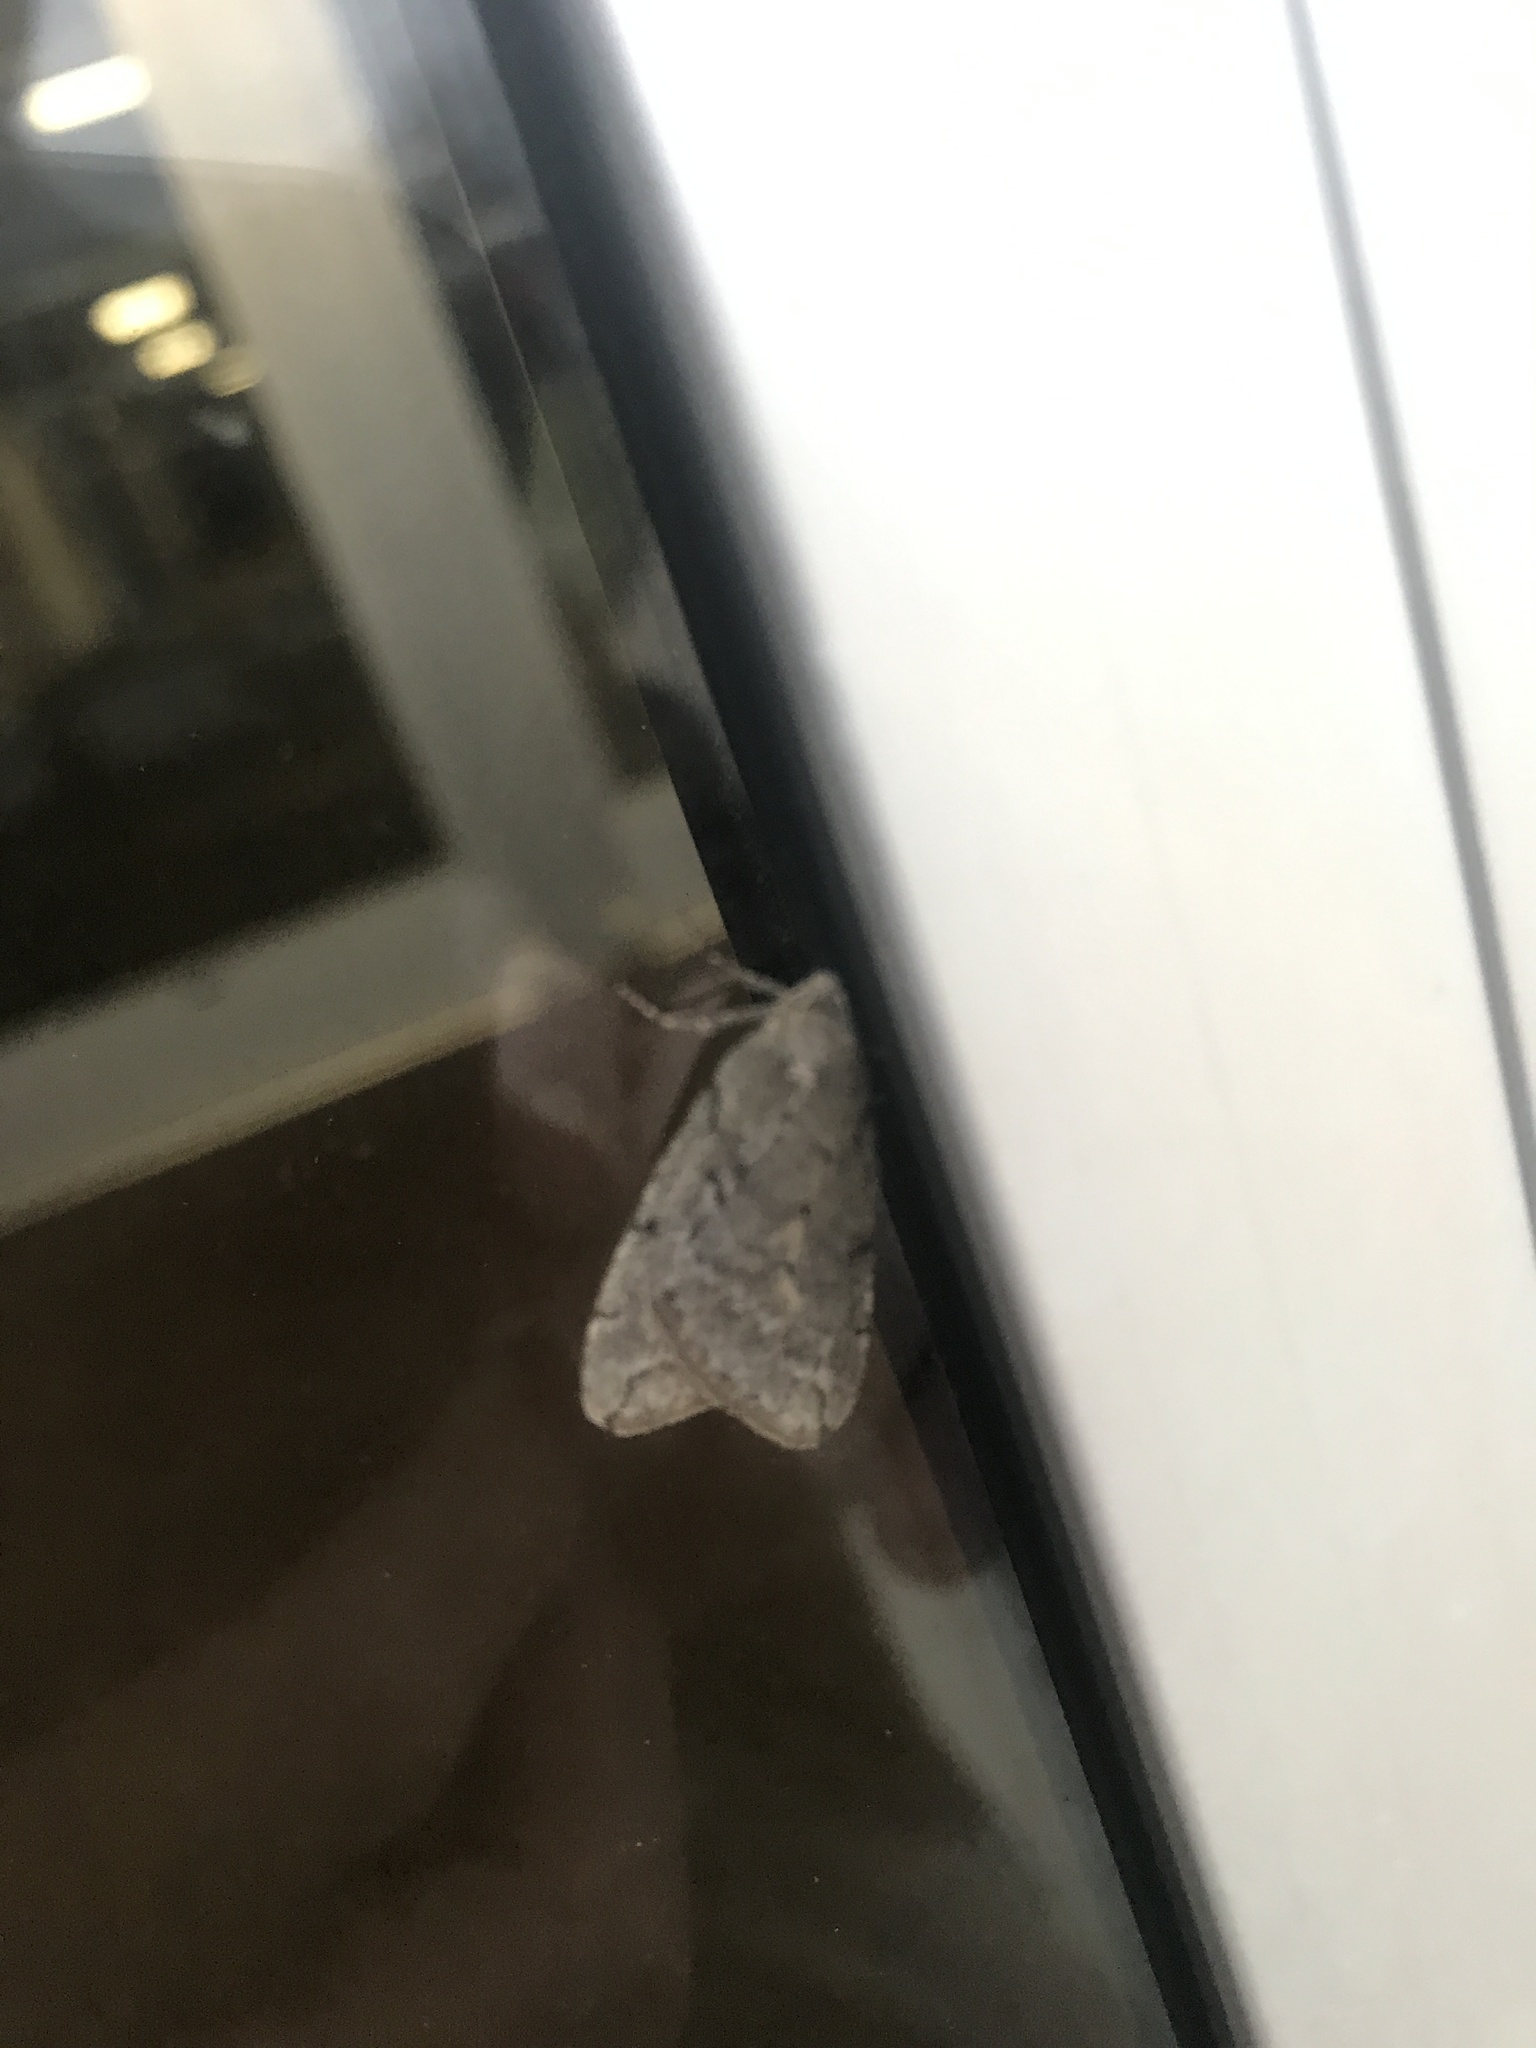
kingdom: Animalia
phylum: Arthropoda
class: Insecta
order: Lepidoptera
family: Geometridae
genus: Paleacrita
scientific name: Paleacrita vernata
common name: Spring cankerworm
